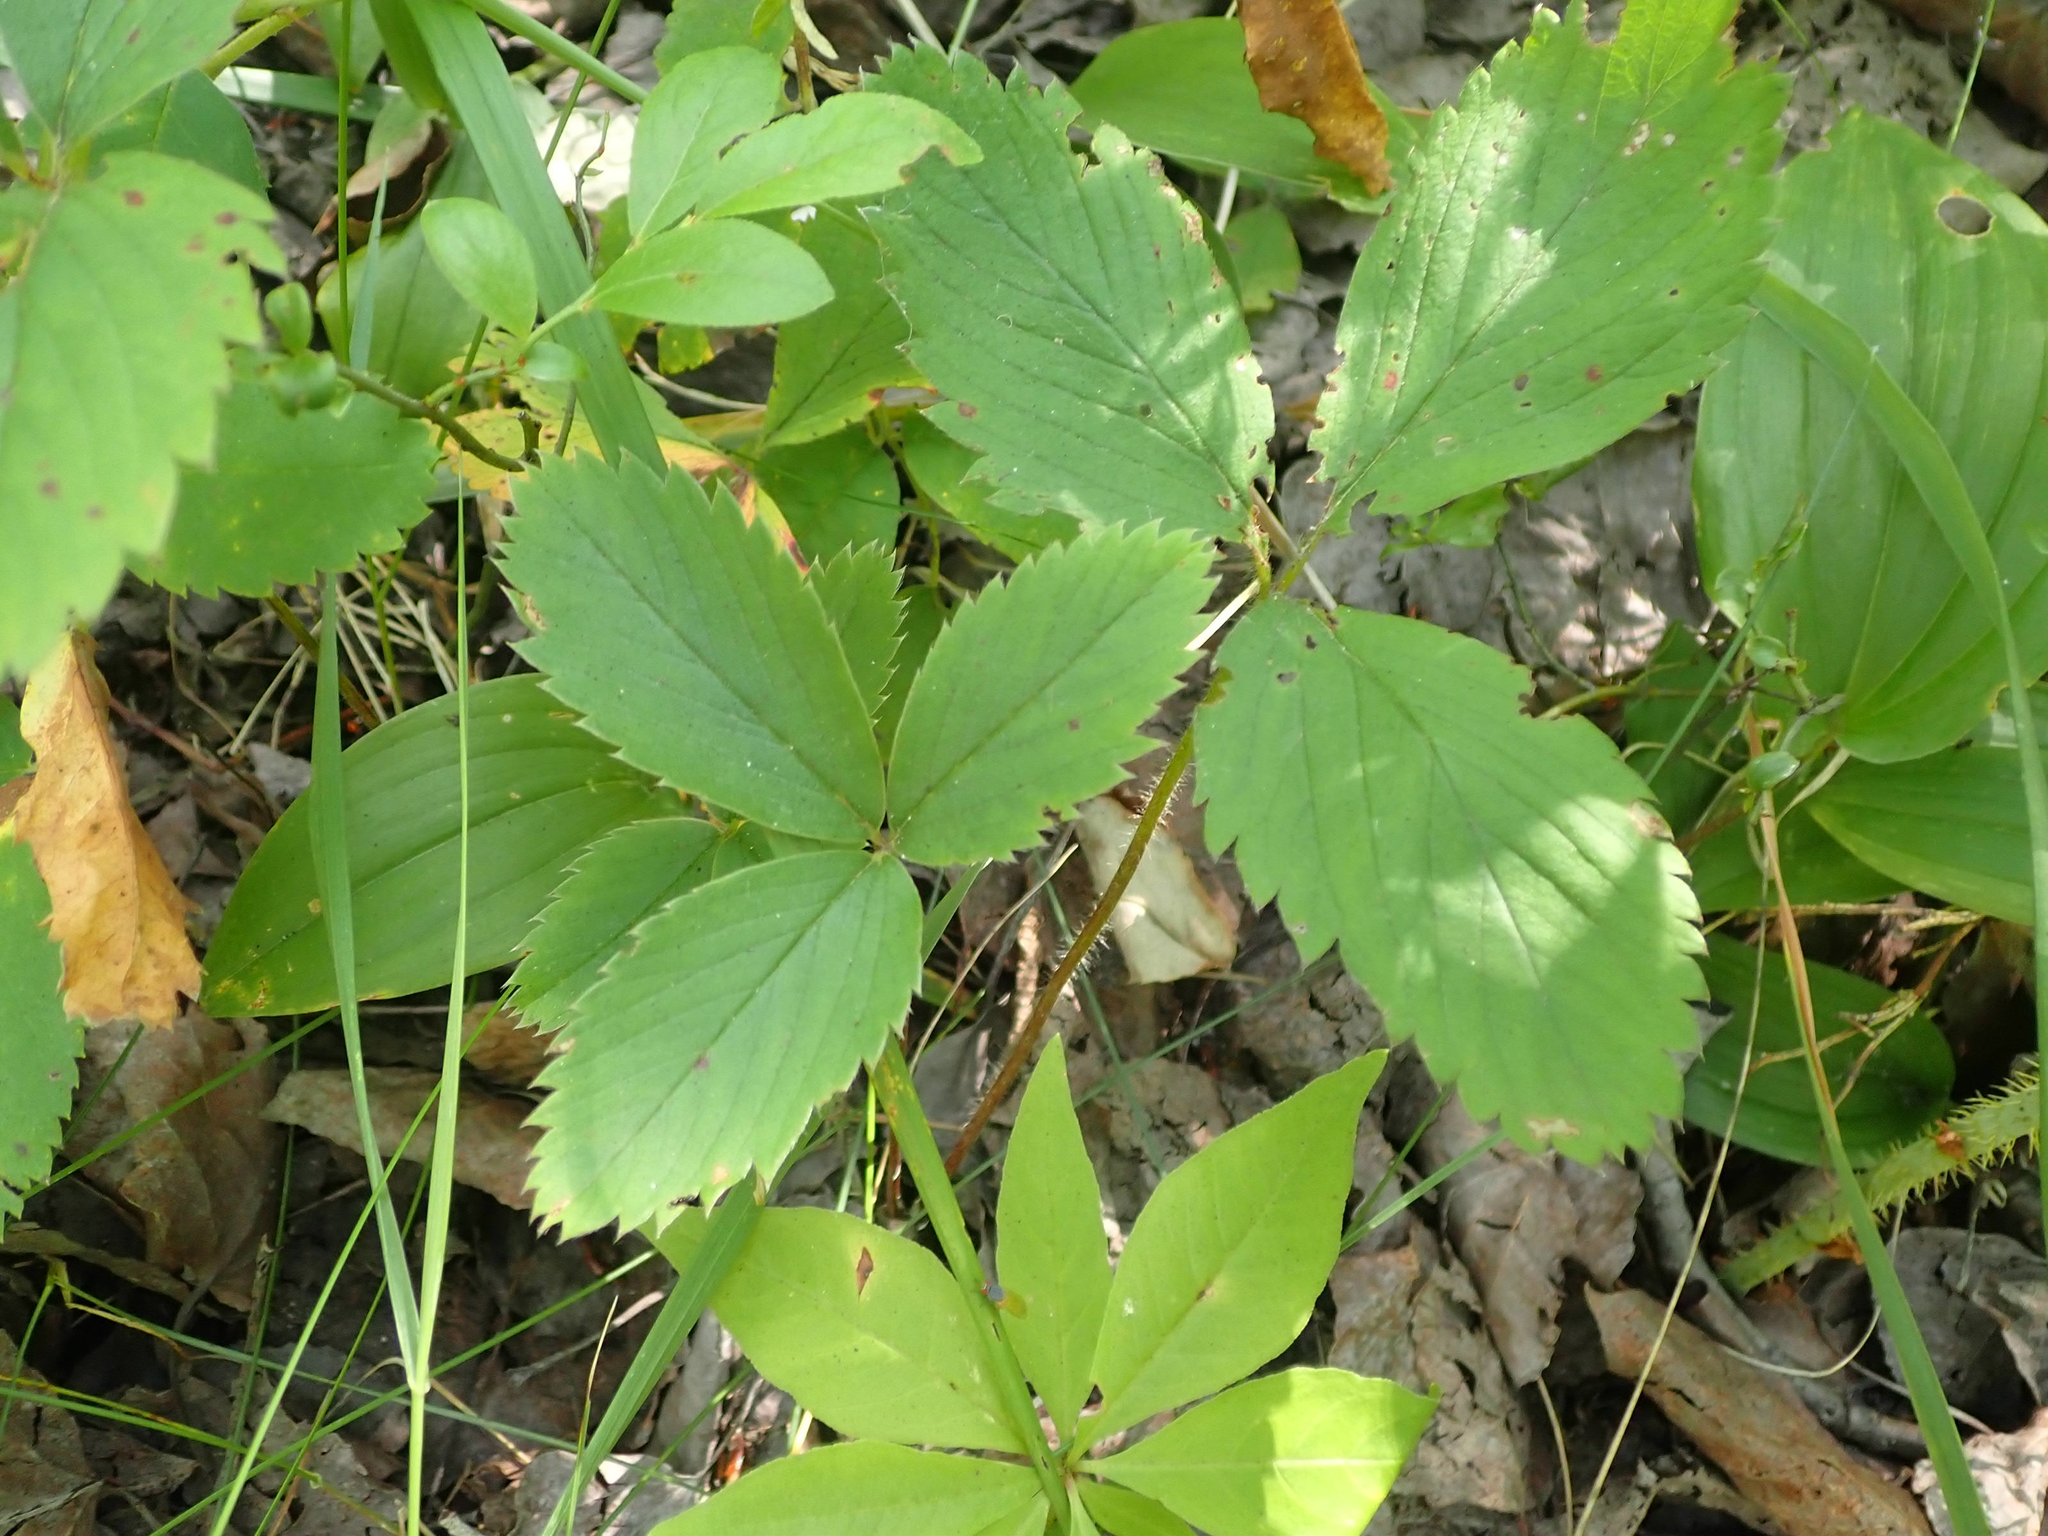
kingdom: Plantae
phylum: Tracheophyta
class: Magnoliopsida
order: Rosales
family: Rosaceae
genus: Fragaria
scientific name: Fragaria virginiana
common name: Thickleaved wild strawberry
